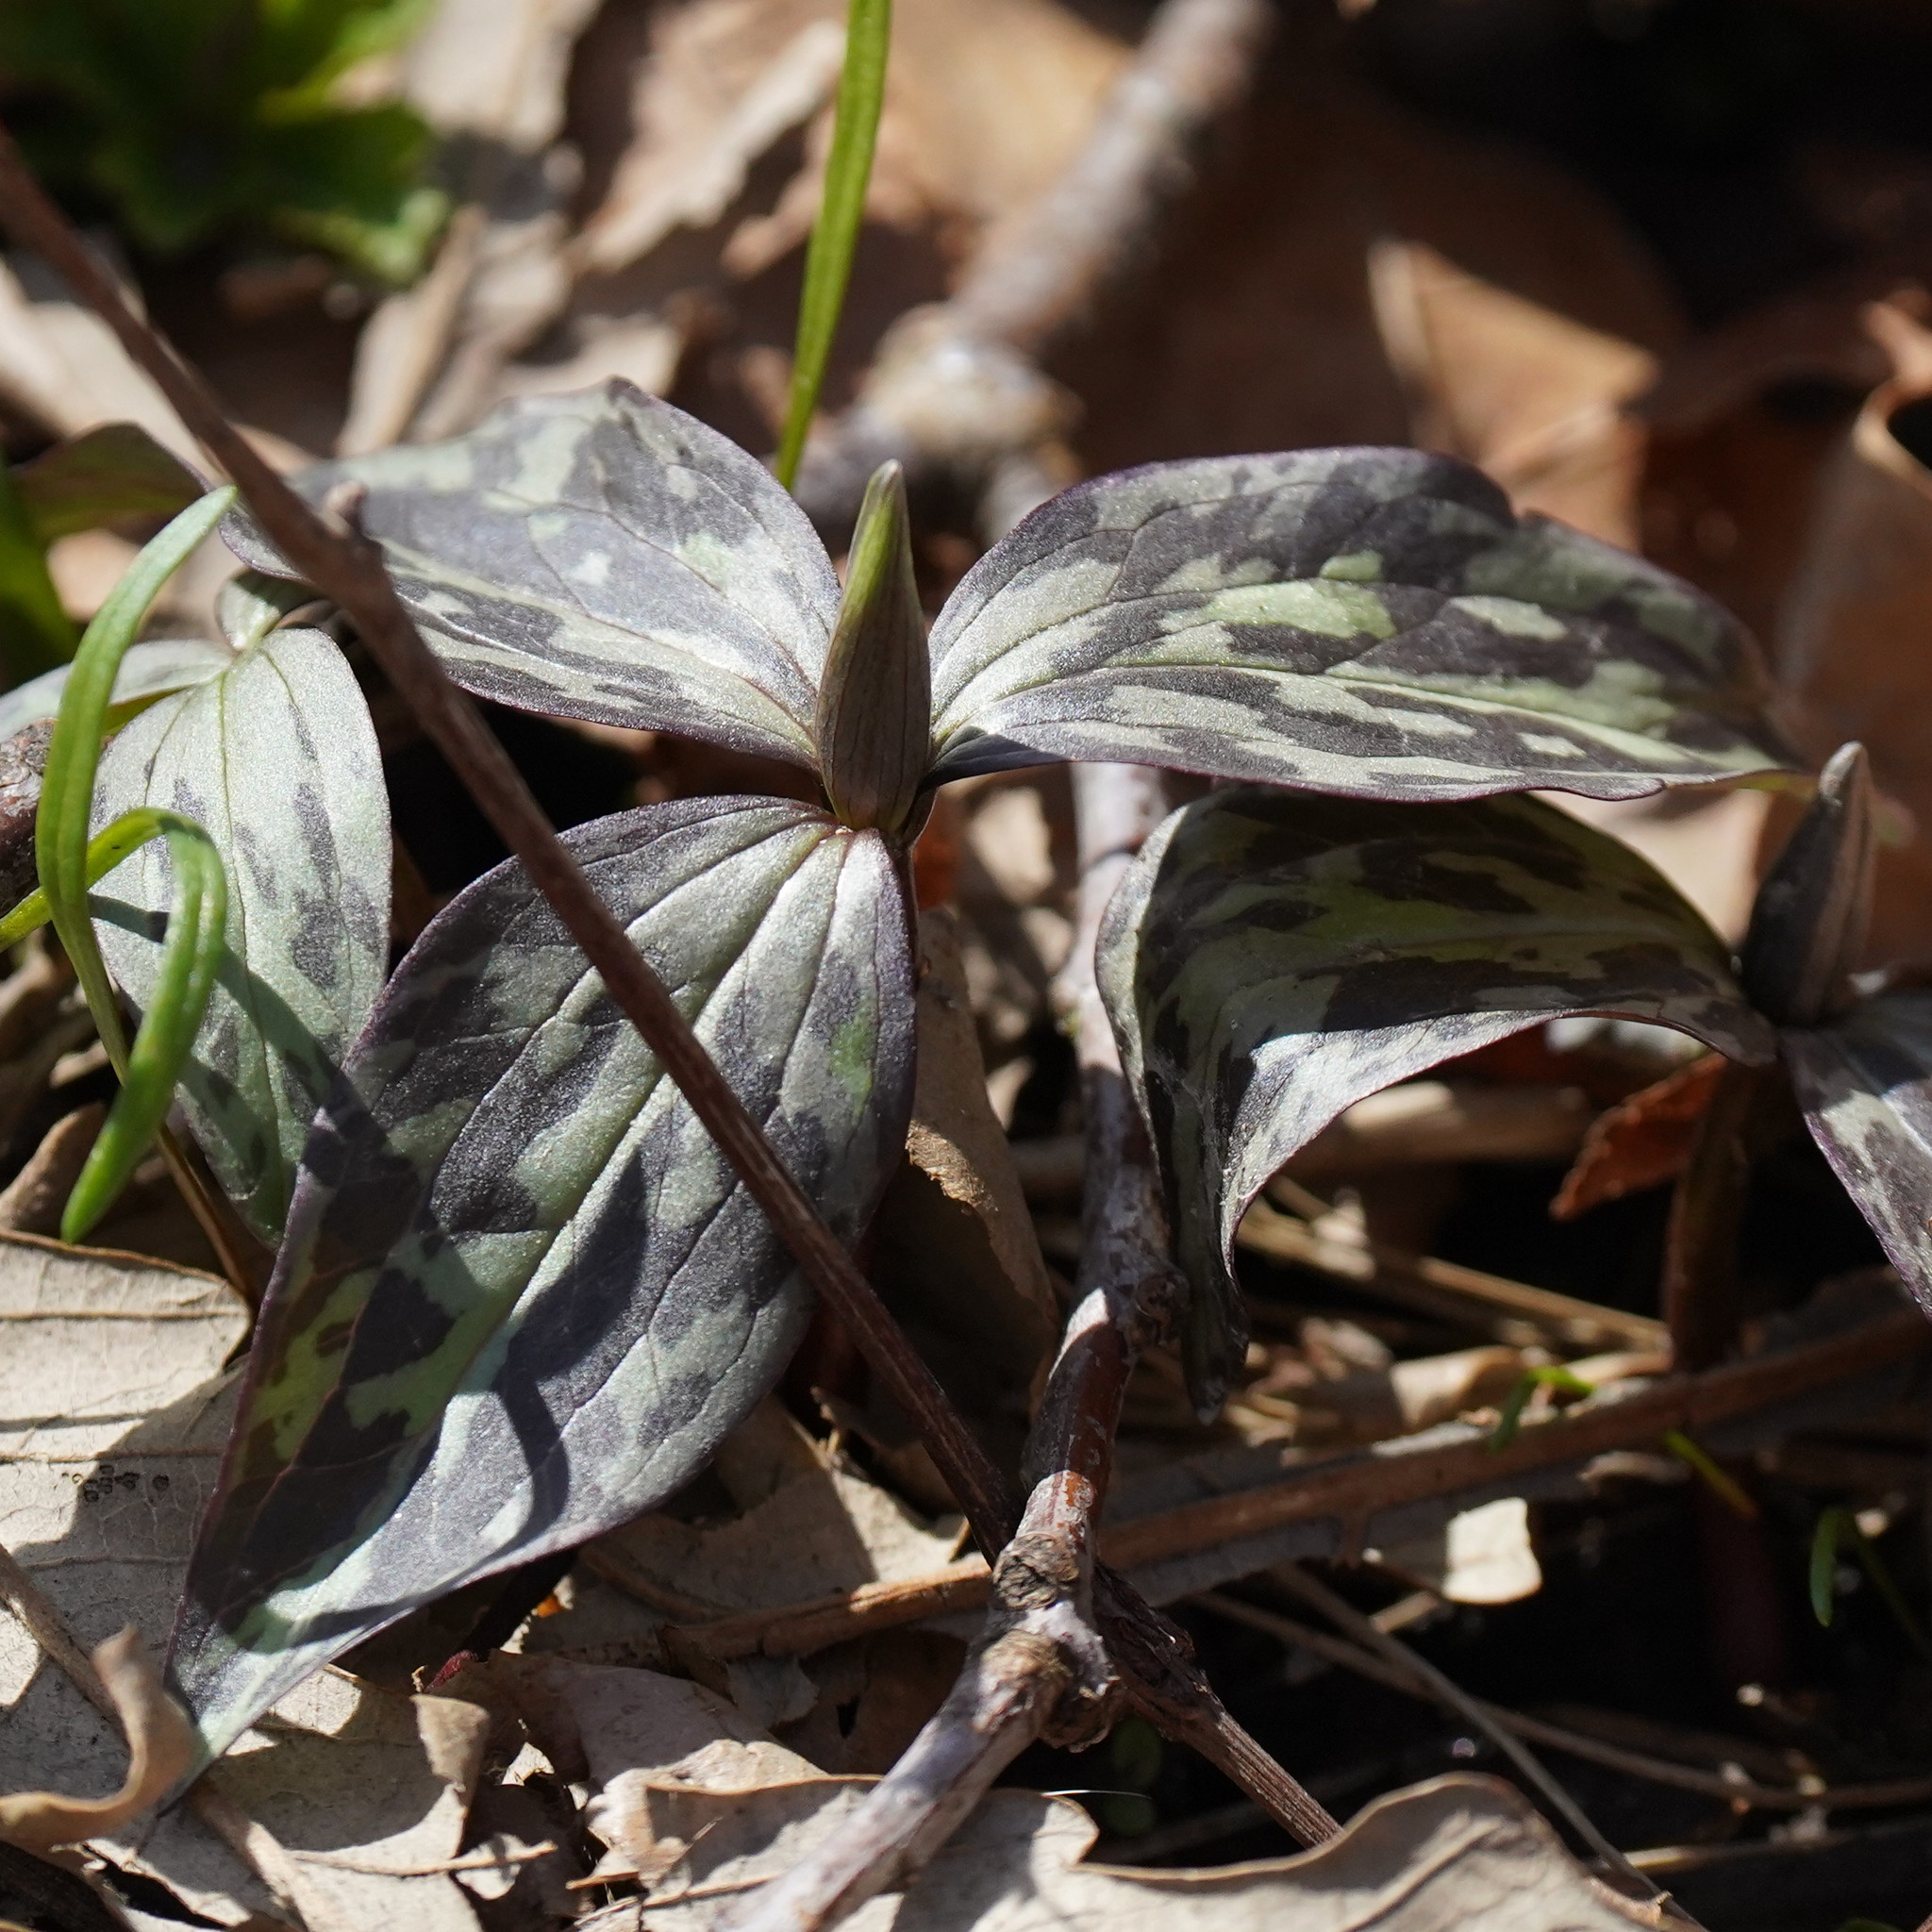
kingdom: Plantae
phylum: Tracheophyta
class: Liliopsida
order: Liliales
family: Melanthiaceae
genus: Trillium
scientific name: Trillium recurvatum
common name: Bloody butcher
